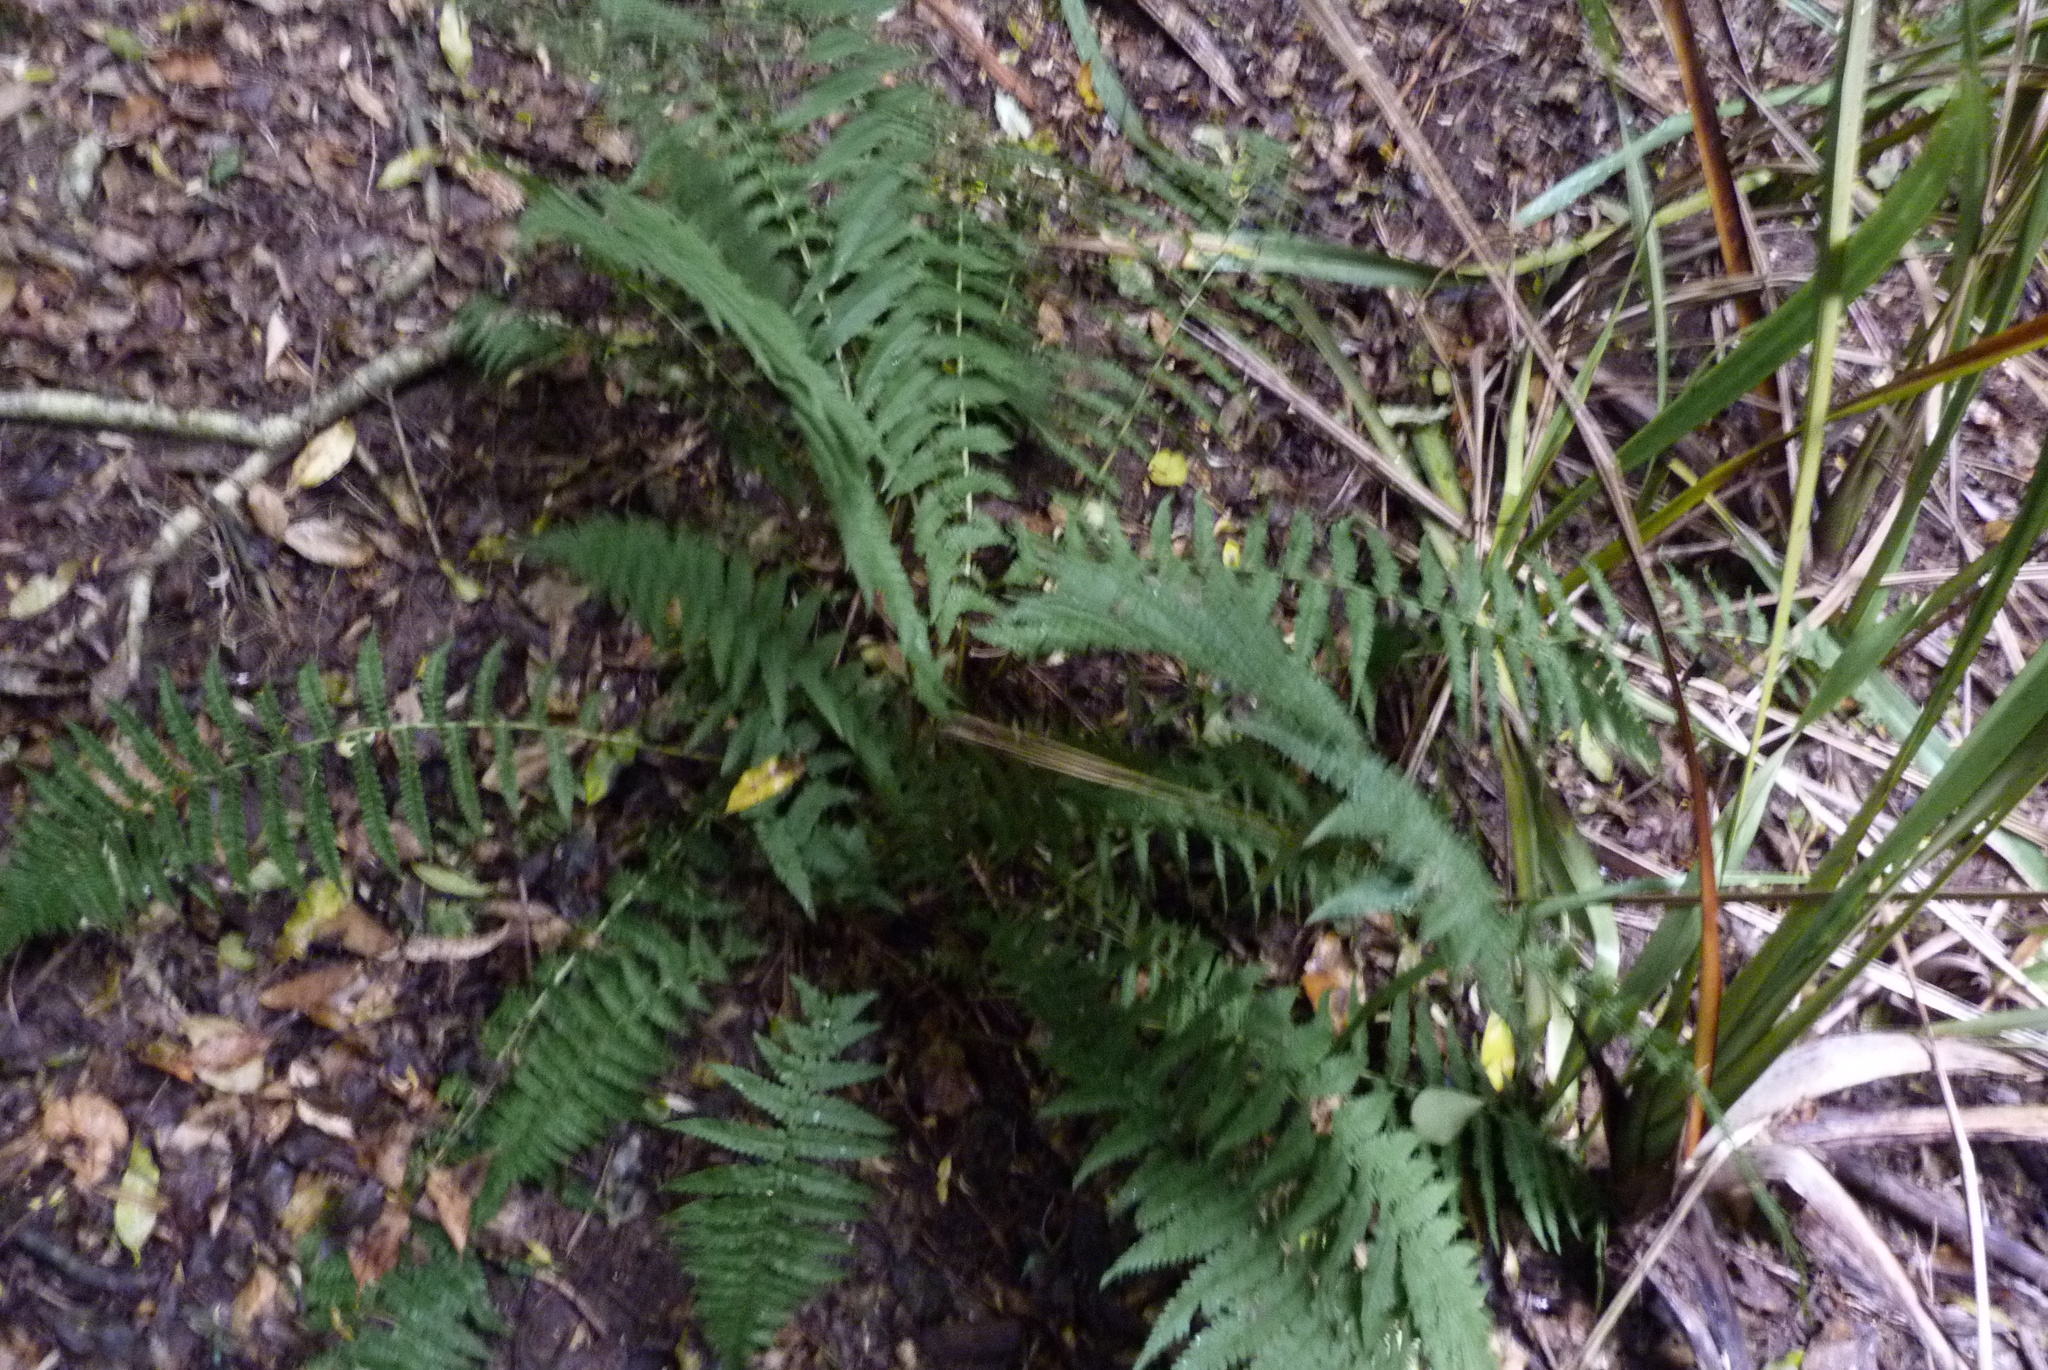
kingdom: Plantae
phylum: Tracheophyta
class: Polypodiopsida
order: Polypodiales
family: Dryopteridaceae
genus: Dryopteris
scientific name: Dryopteris filix-mas
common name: Male fern
